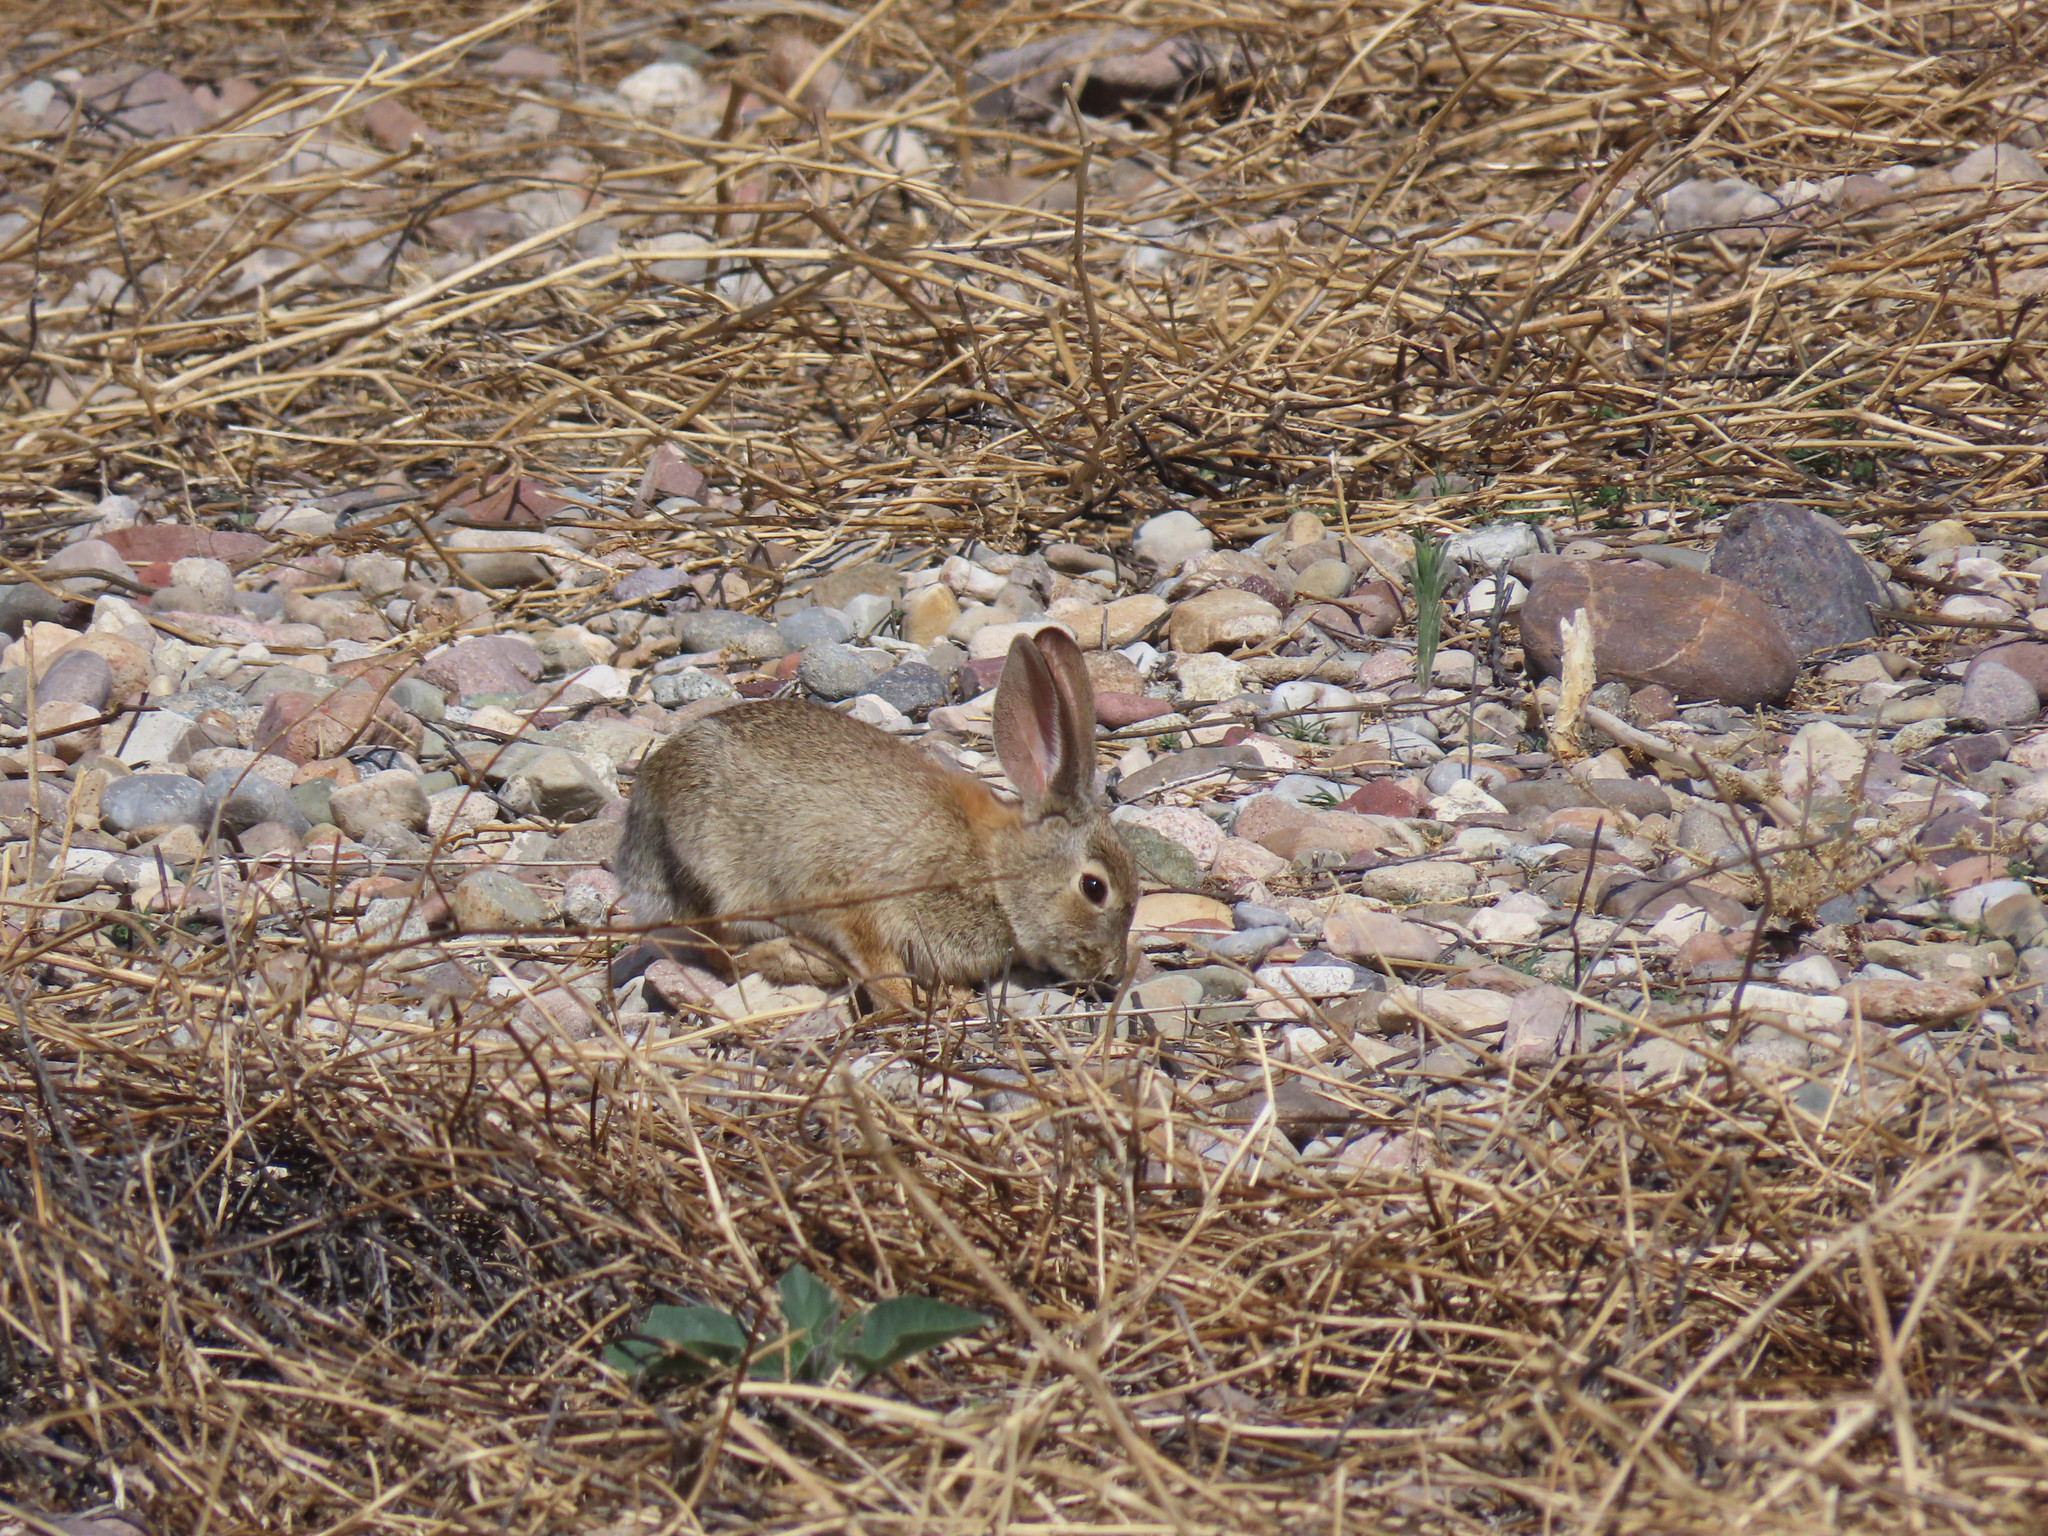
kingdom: Animalia
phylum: Chordata
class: Mammalia
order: Lagomorpha
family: Leporidae
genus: Sylvilagus
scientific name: Sylvilagus audubonii
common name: Desert cottontail
